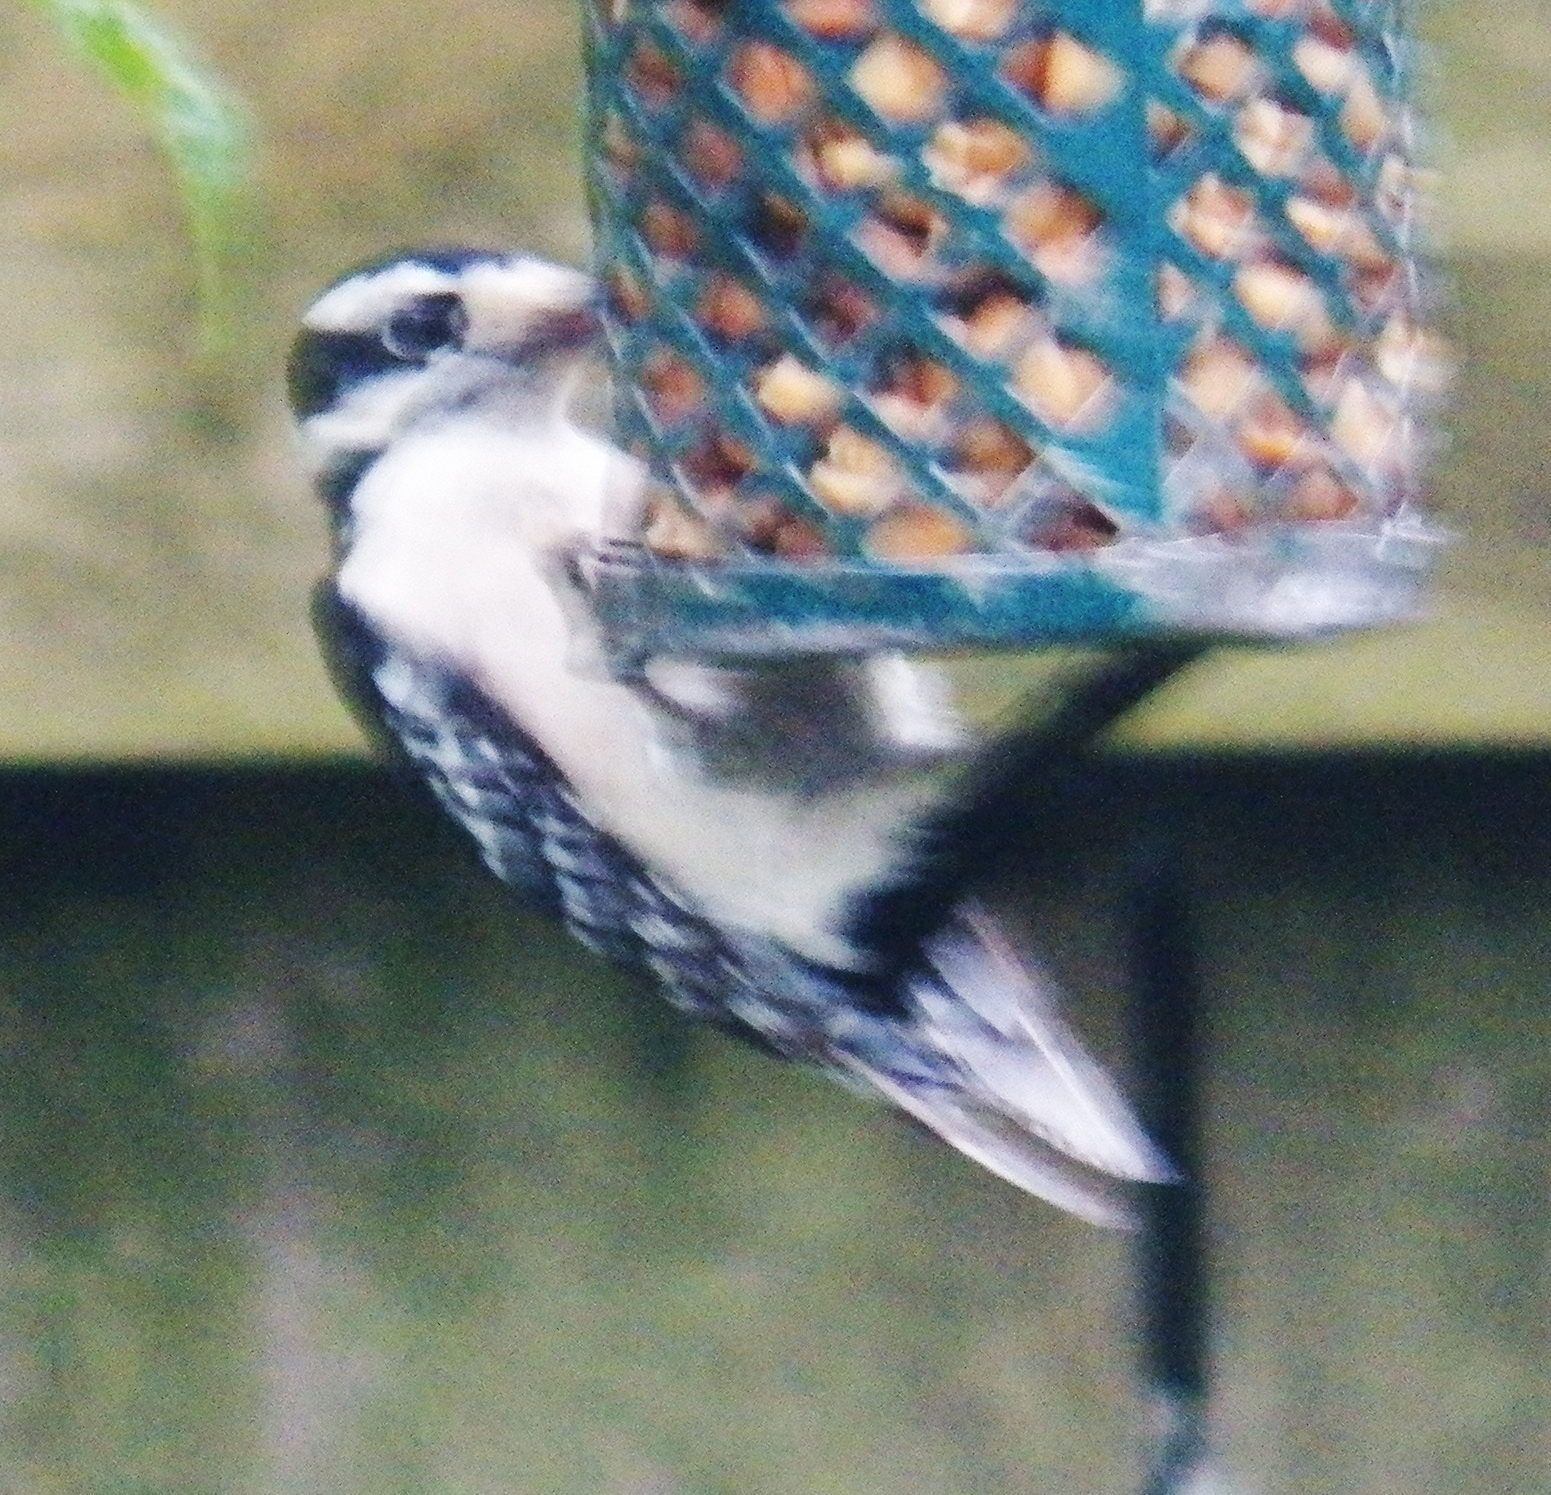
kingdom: Animalia
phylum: Chordata
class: Aves
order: Piciformes
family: Picidae
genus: Dryobates
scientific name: Dryobates pubescens
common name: Downy woodpecker
